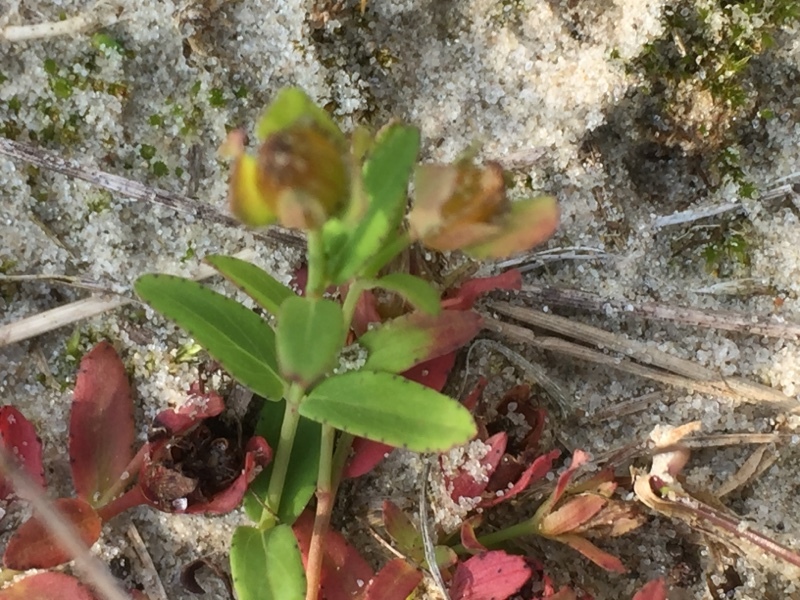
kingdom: Plantae
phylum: Tracheophyta
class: Magnoliopsida
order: Malpighiales
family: Hypericaceae
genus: Hypericum
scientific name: Hypericum humifusum
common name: Trailing st. john's-wort
